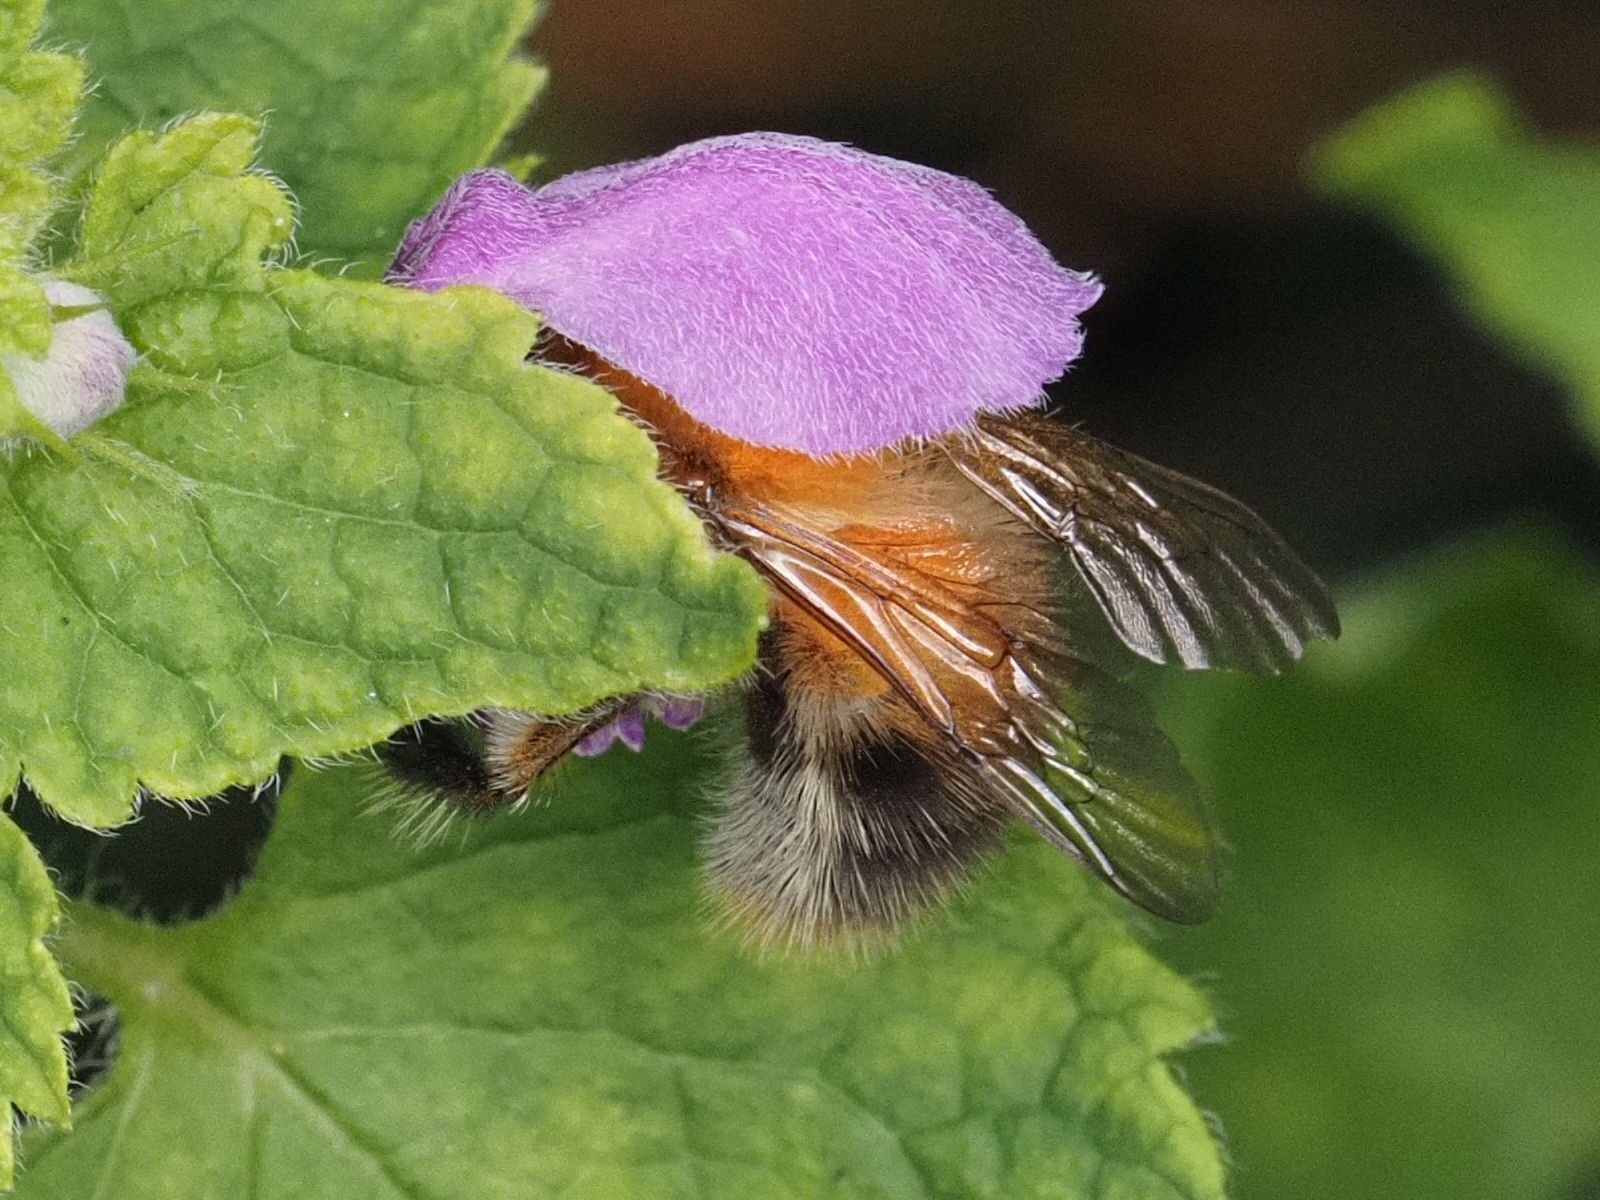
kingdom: Animalia
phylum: Arthropoda
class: Insecta
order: Hymenoptera
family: Apidae
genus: Bombus
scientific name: Bombus pascuorum
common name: Common carder bee
